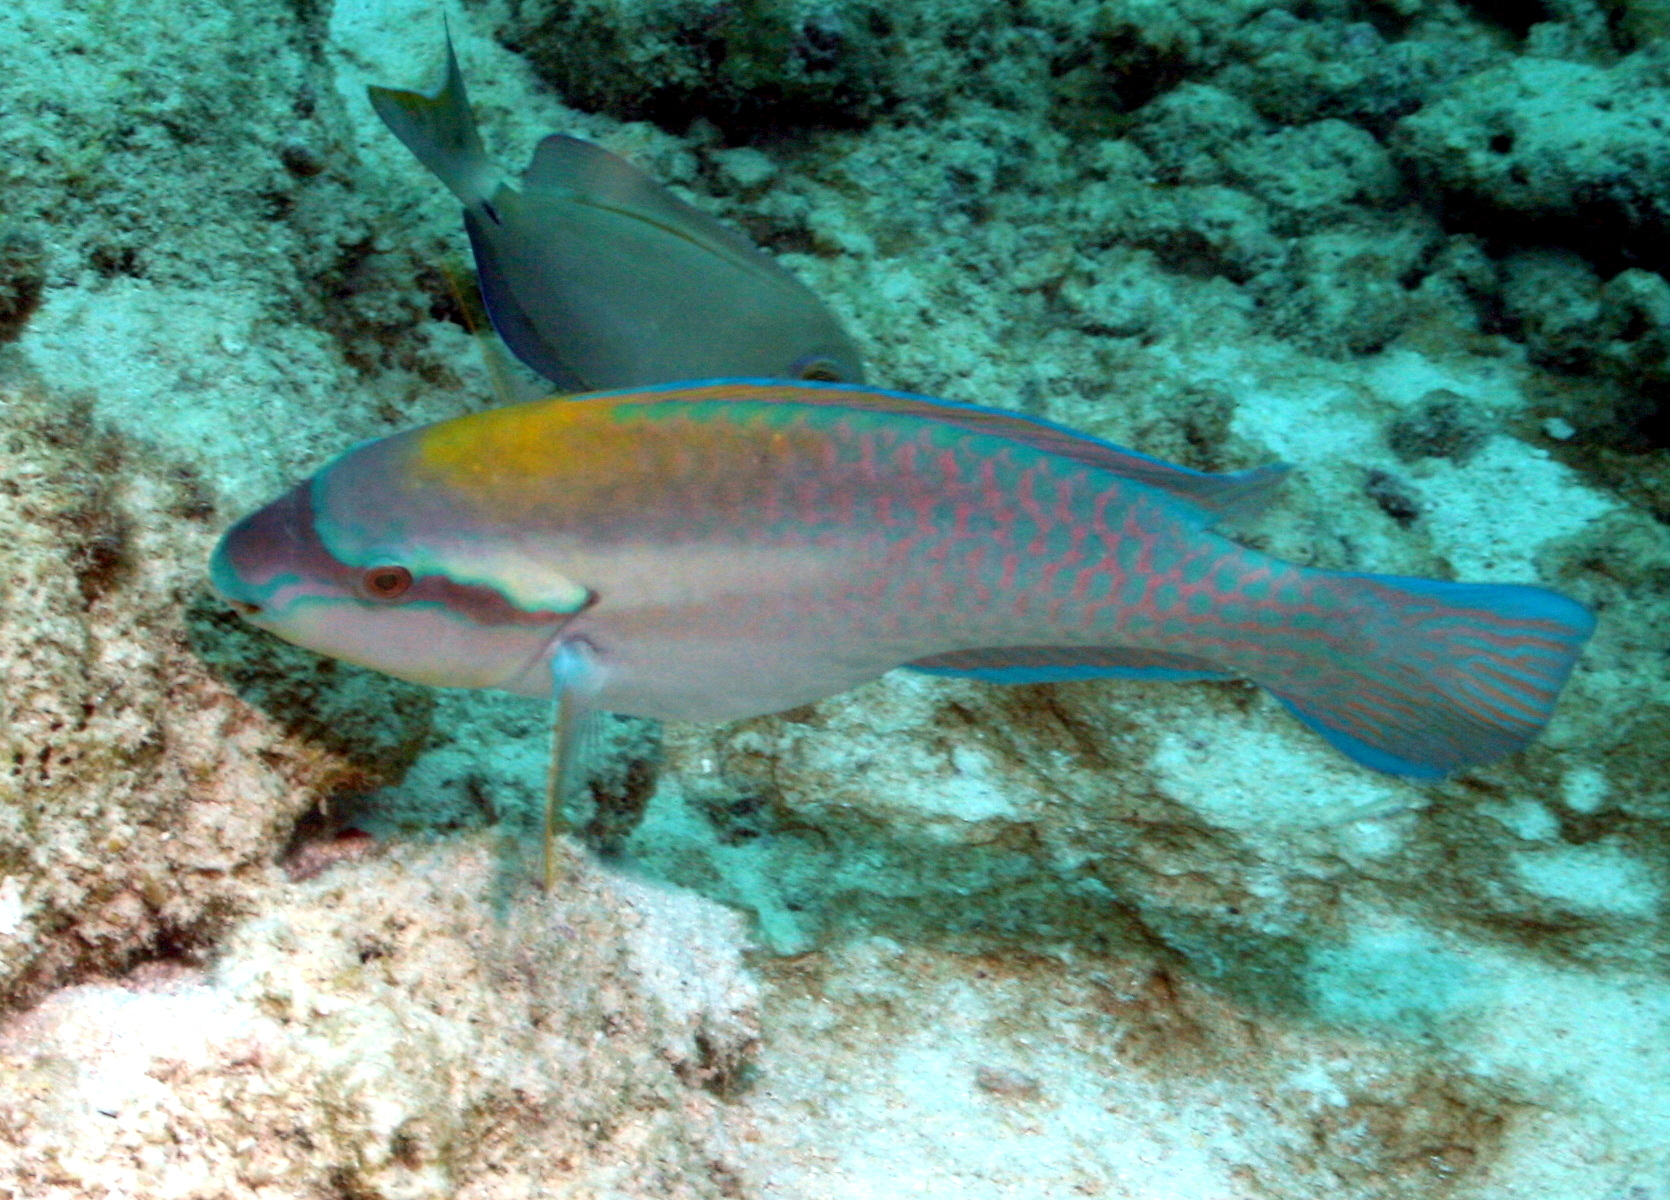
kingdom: Animalia
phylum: Chordata
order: Perciformes
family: Scaridae
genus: Scarus
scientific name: Scarus iseri
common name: Striped parrotfish
